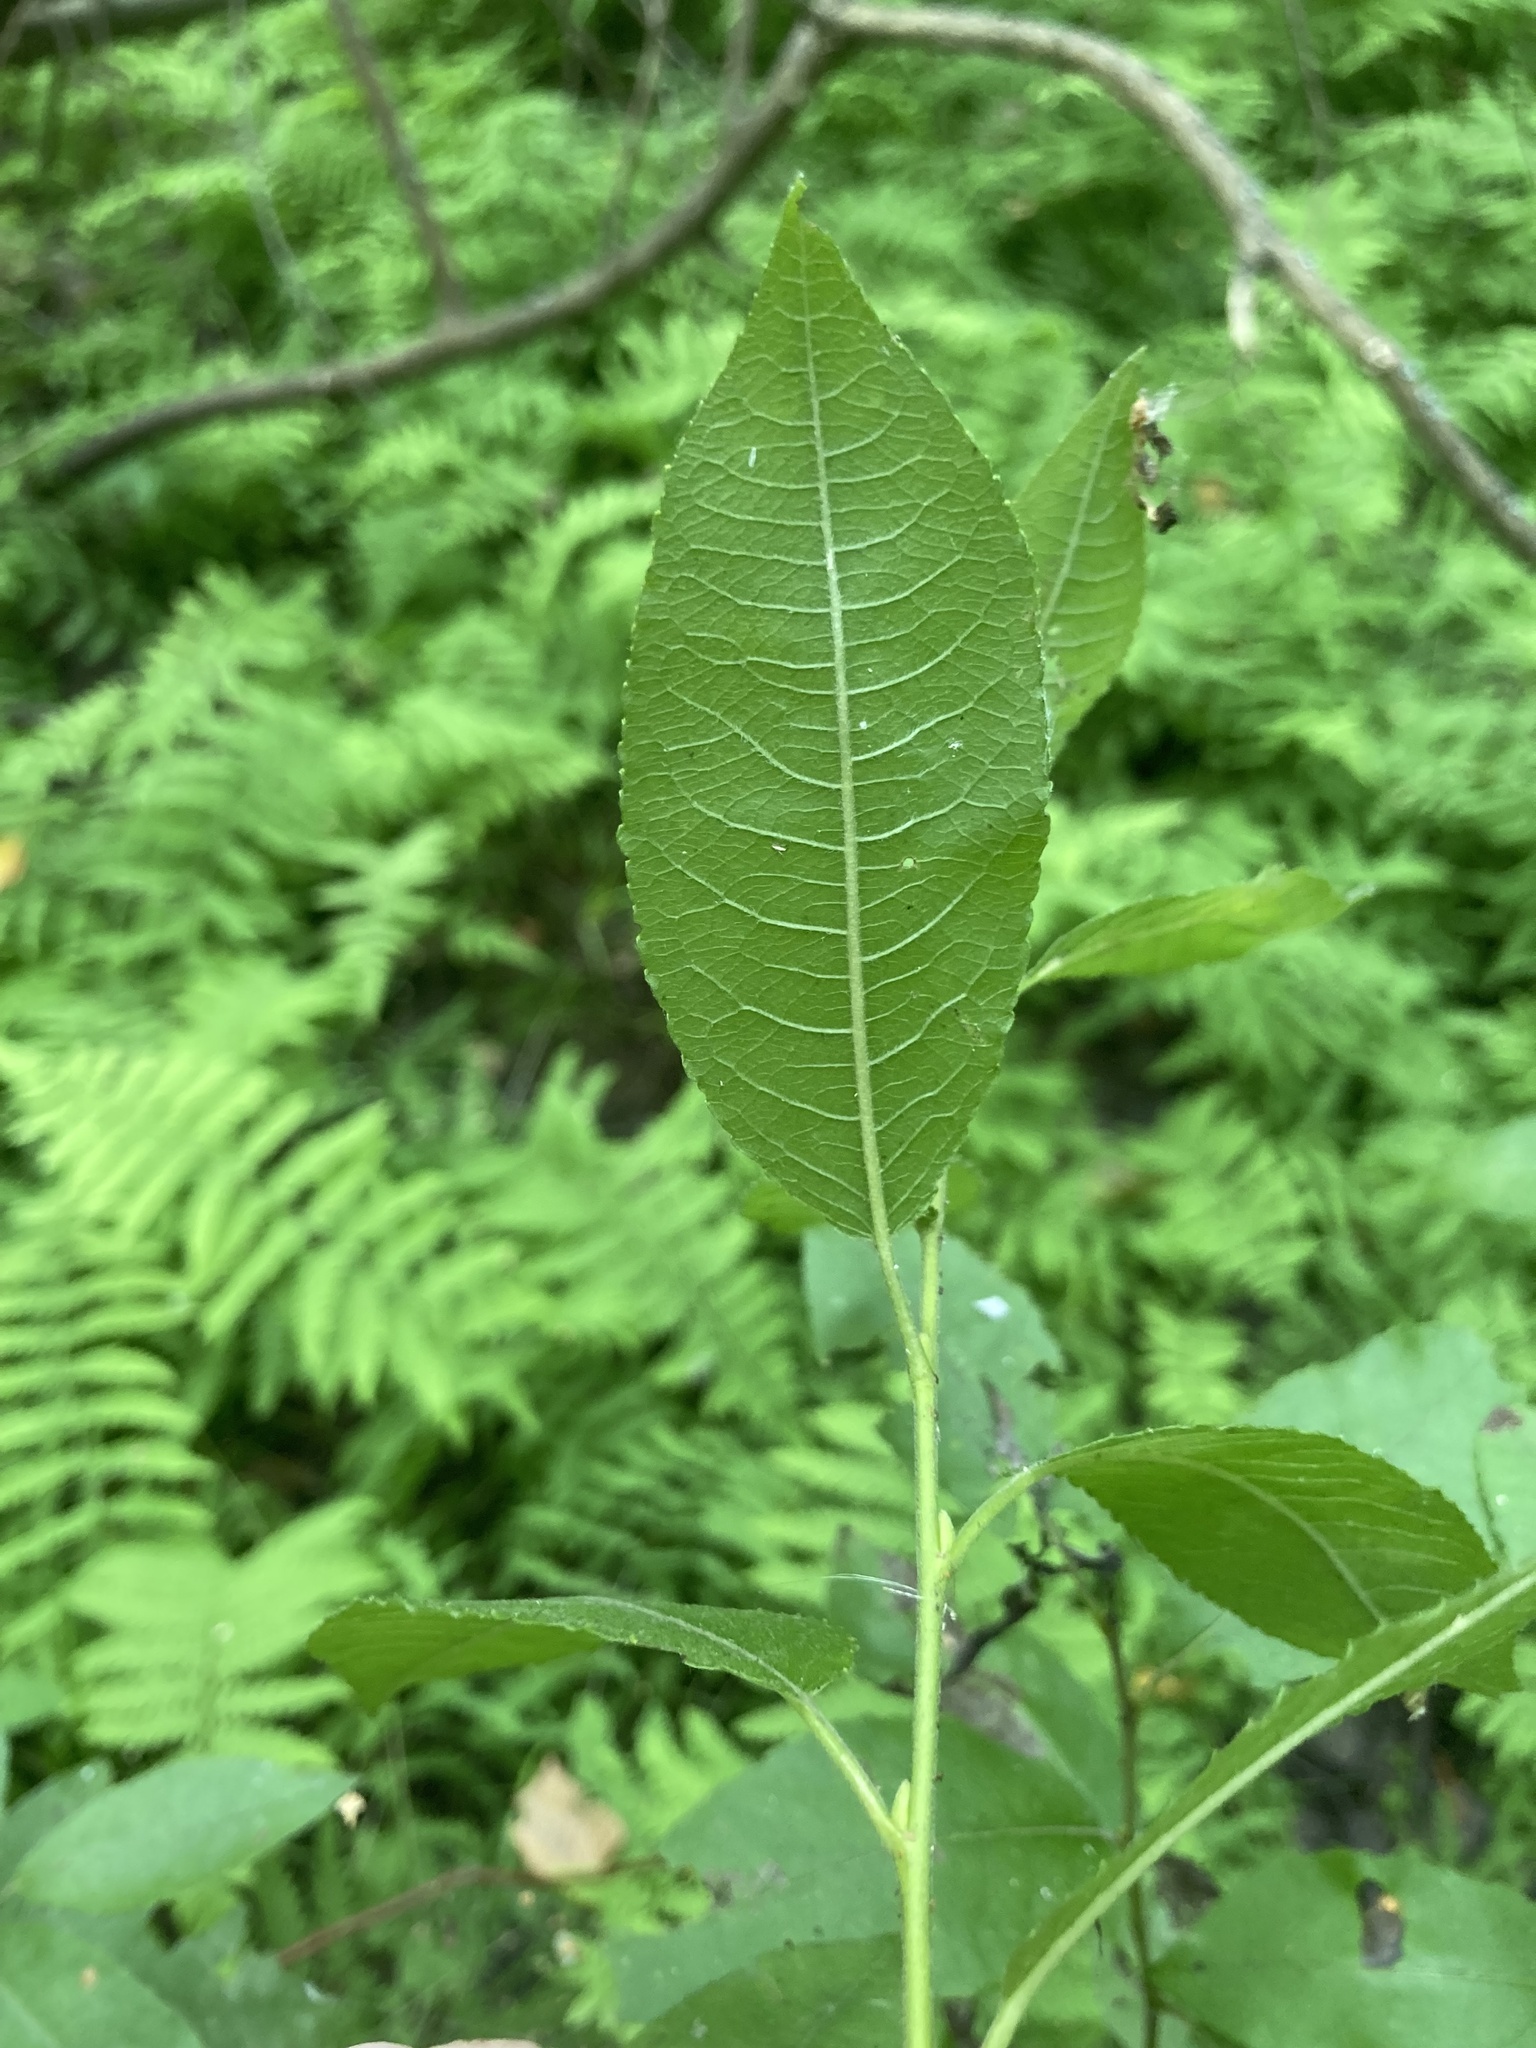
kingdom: Plantae
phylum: Tracheophyta
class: Magnoliopsida
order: Malpighiales
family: Salicaceae
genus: Salix
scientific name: Salix myrsinifolia
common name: Dark-leaved willow
